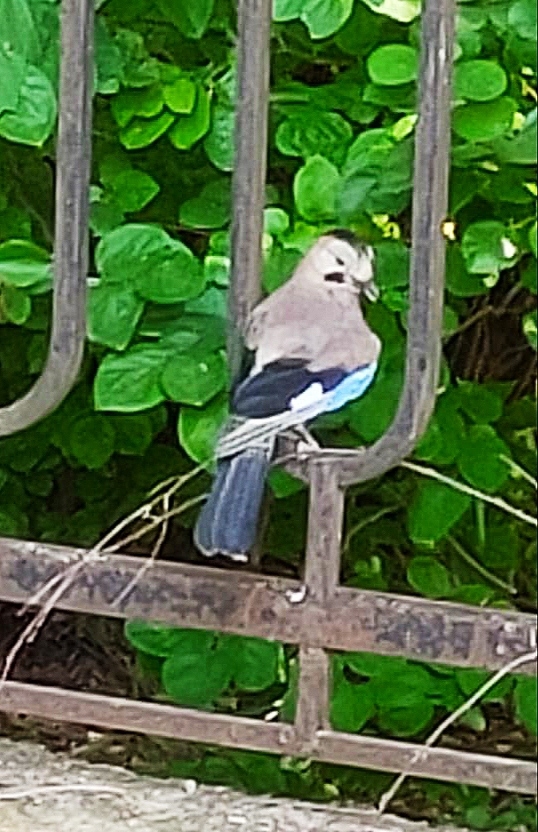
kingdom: Animalia
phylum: Chordata
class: Aves
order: Passeriformes
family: Corvidae
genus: Garrulus
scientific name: Garrulus glandarius
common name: Eurasian jay
